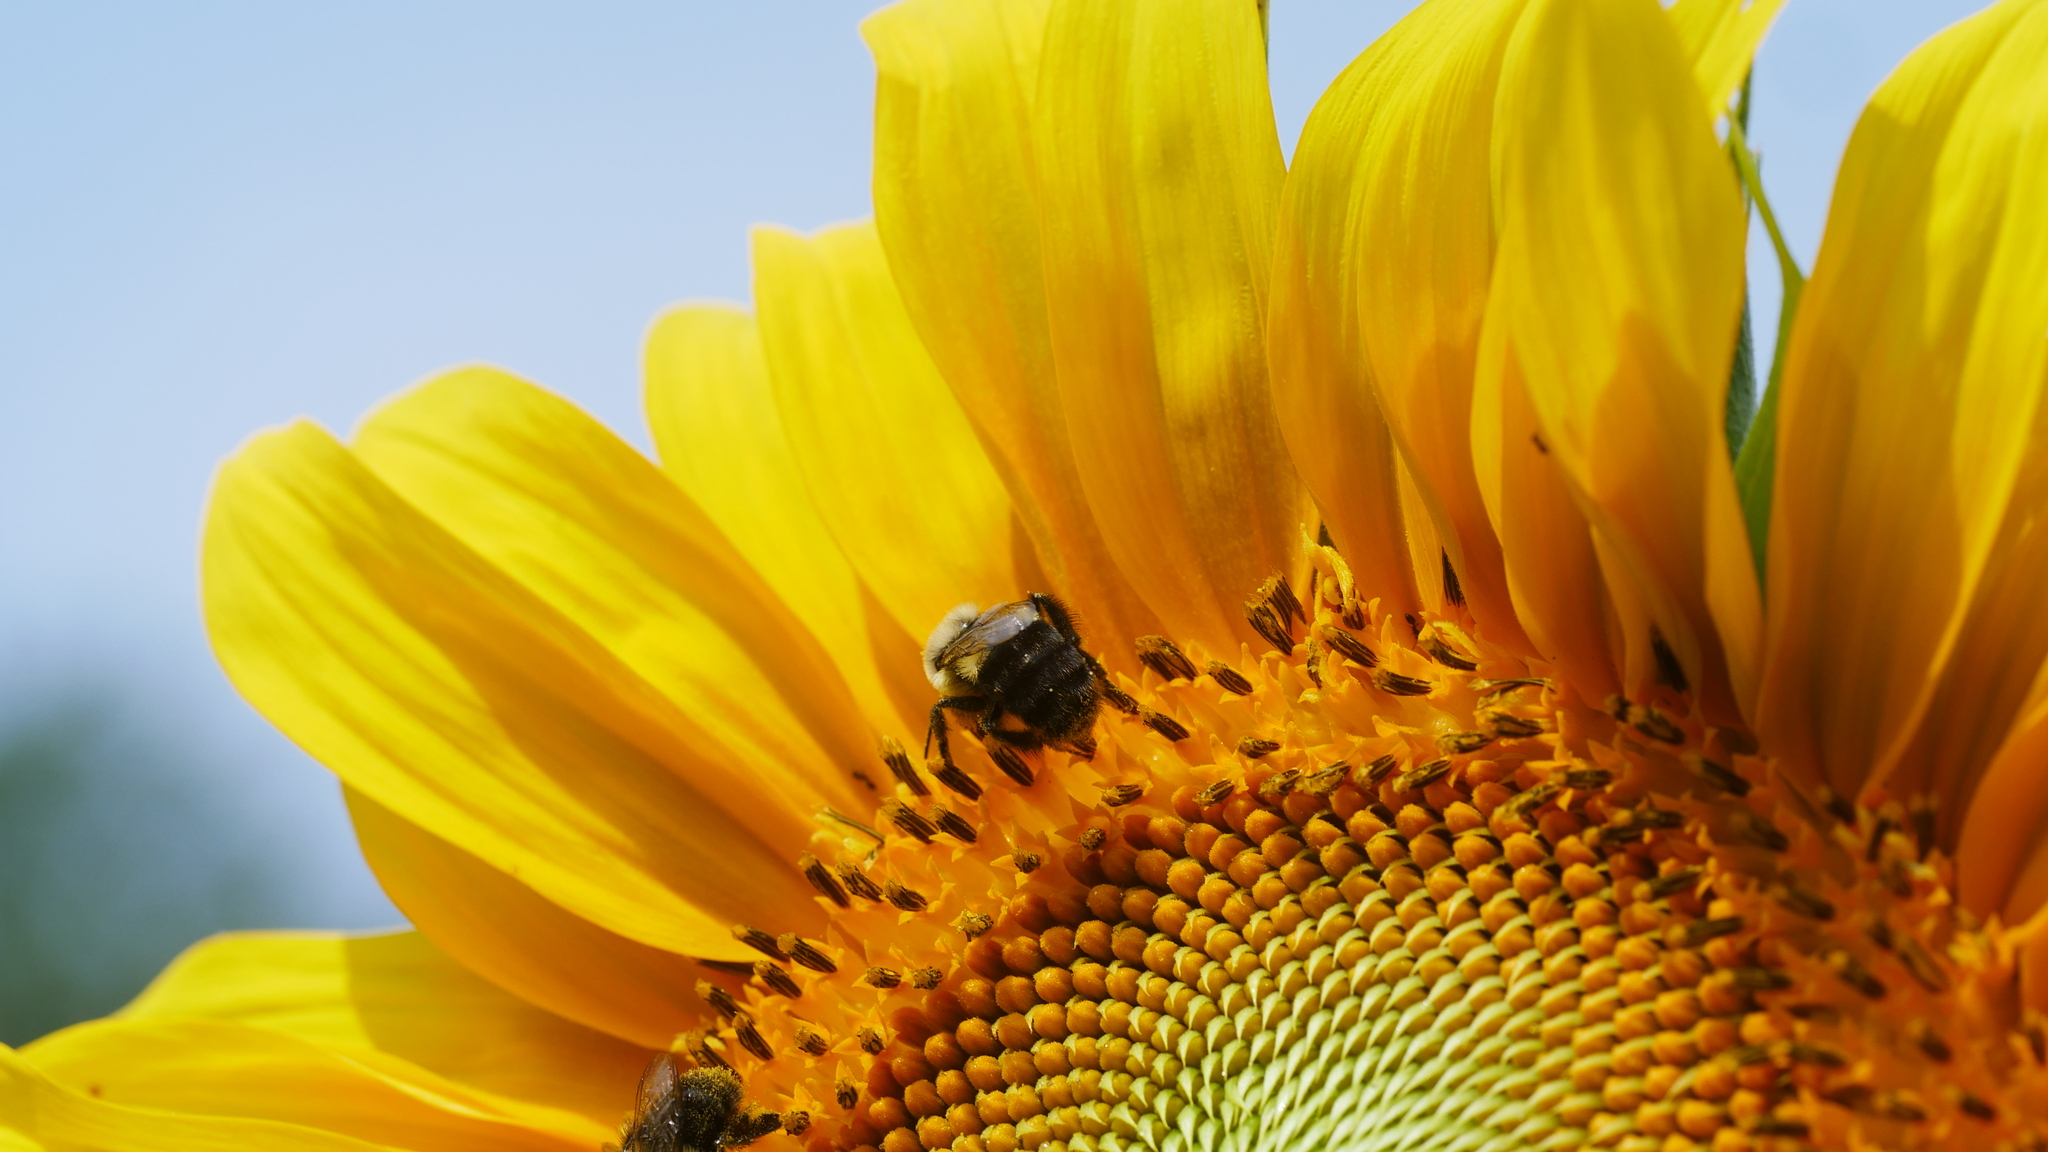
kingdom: Animalia
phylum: Arthropoda
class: Insecta
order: Hymenoptera
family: Apidae
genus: Bombus
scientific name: Bombus impatiens
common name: Common eastern bumble bee
